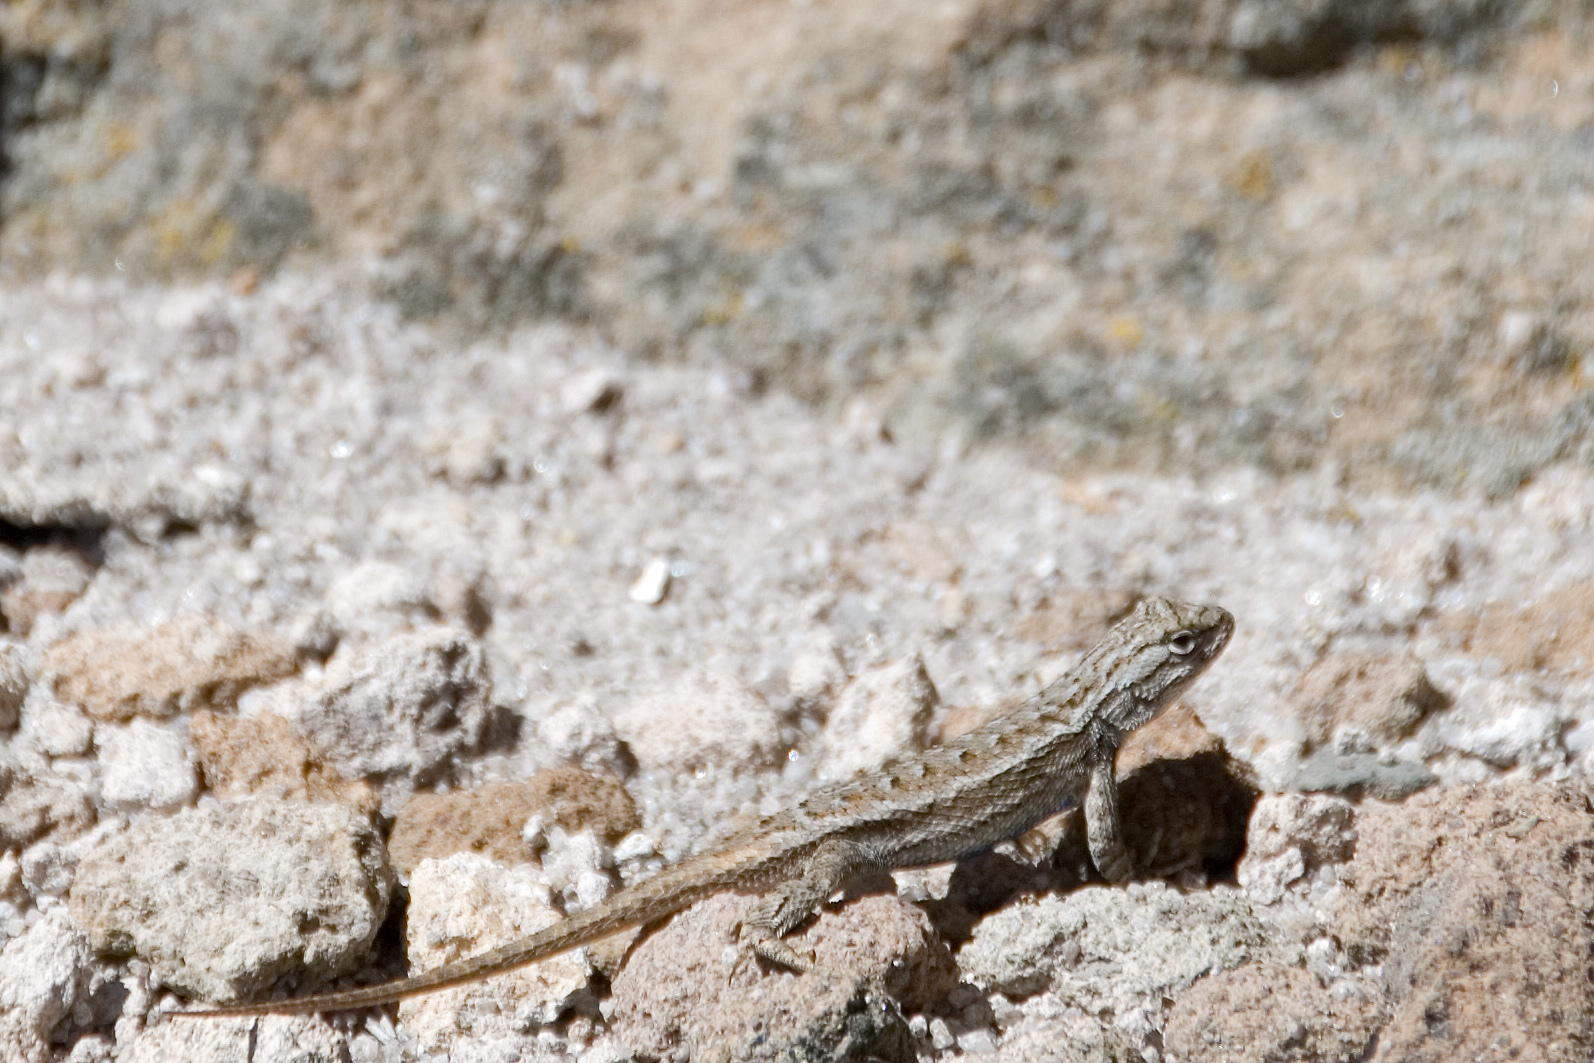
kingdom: Animalia
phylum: Chordata
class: Squamata
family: Phrynosomatidae
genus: Sceloporus
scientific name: Sceloporus
